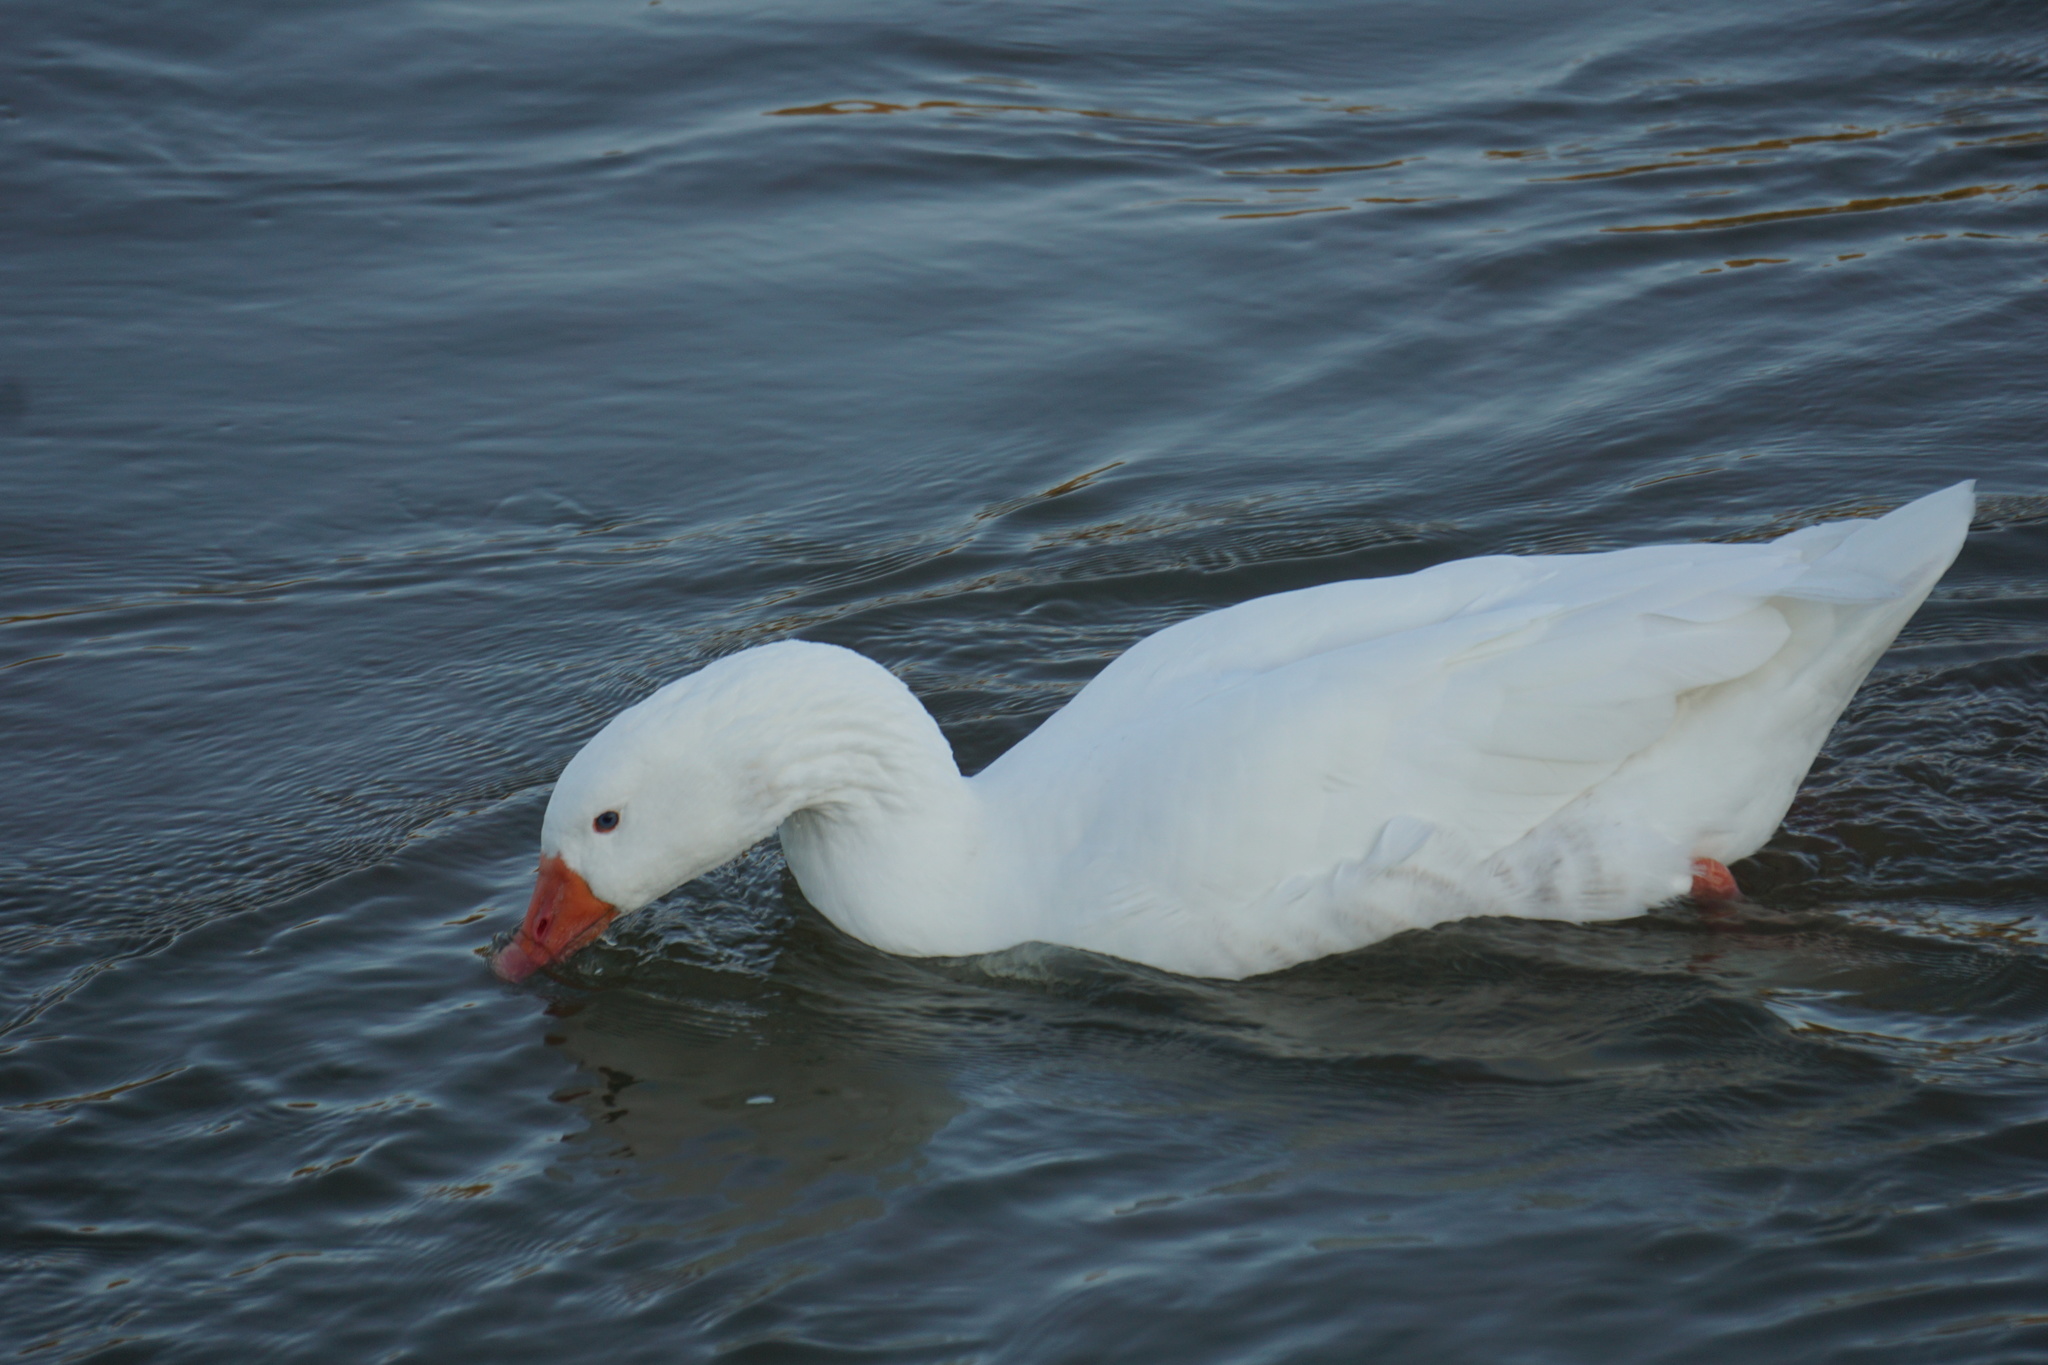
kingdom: Animalia
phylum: Chordata
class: Aves
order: Anseriformes
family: Anatidae
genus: Anser
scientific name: Anser anser
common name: Greylag goose
